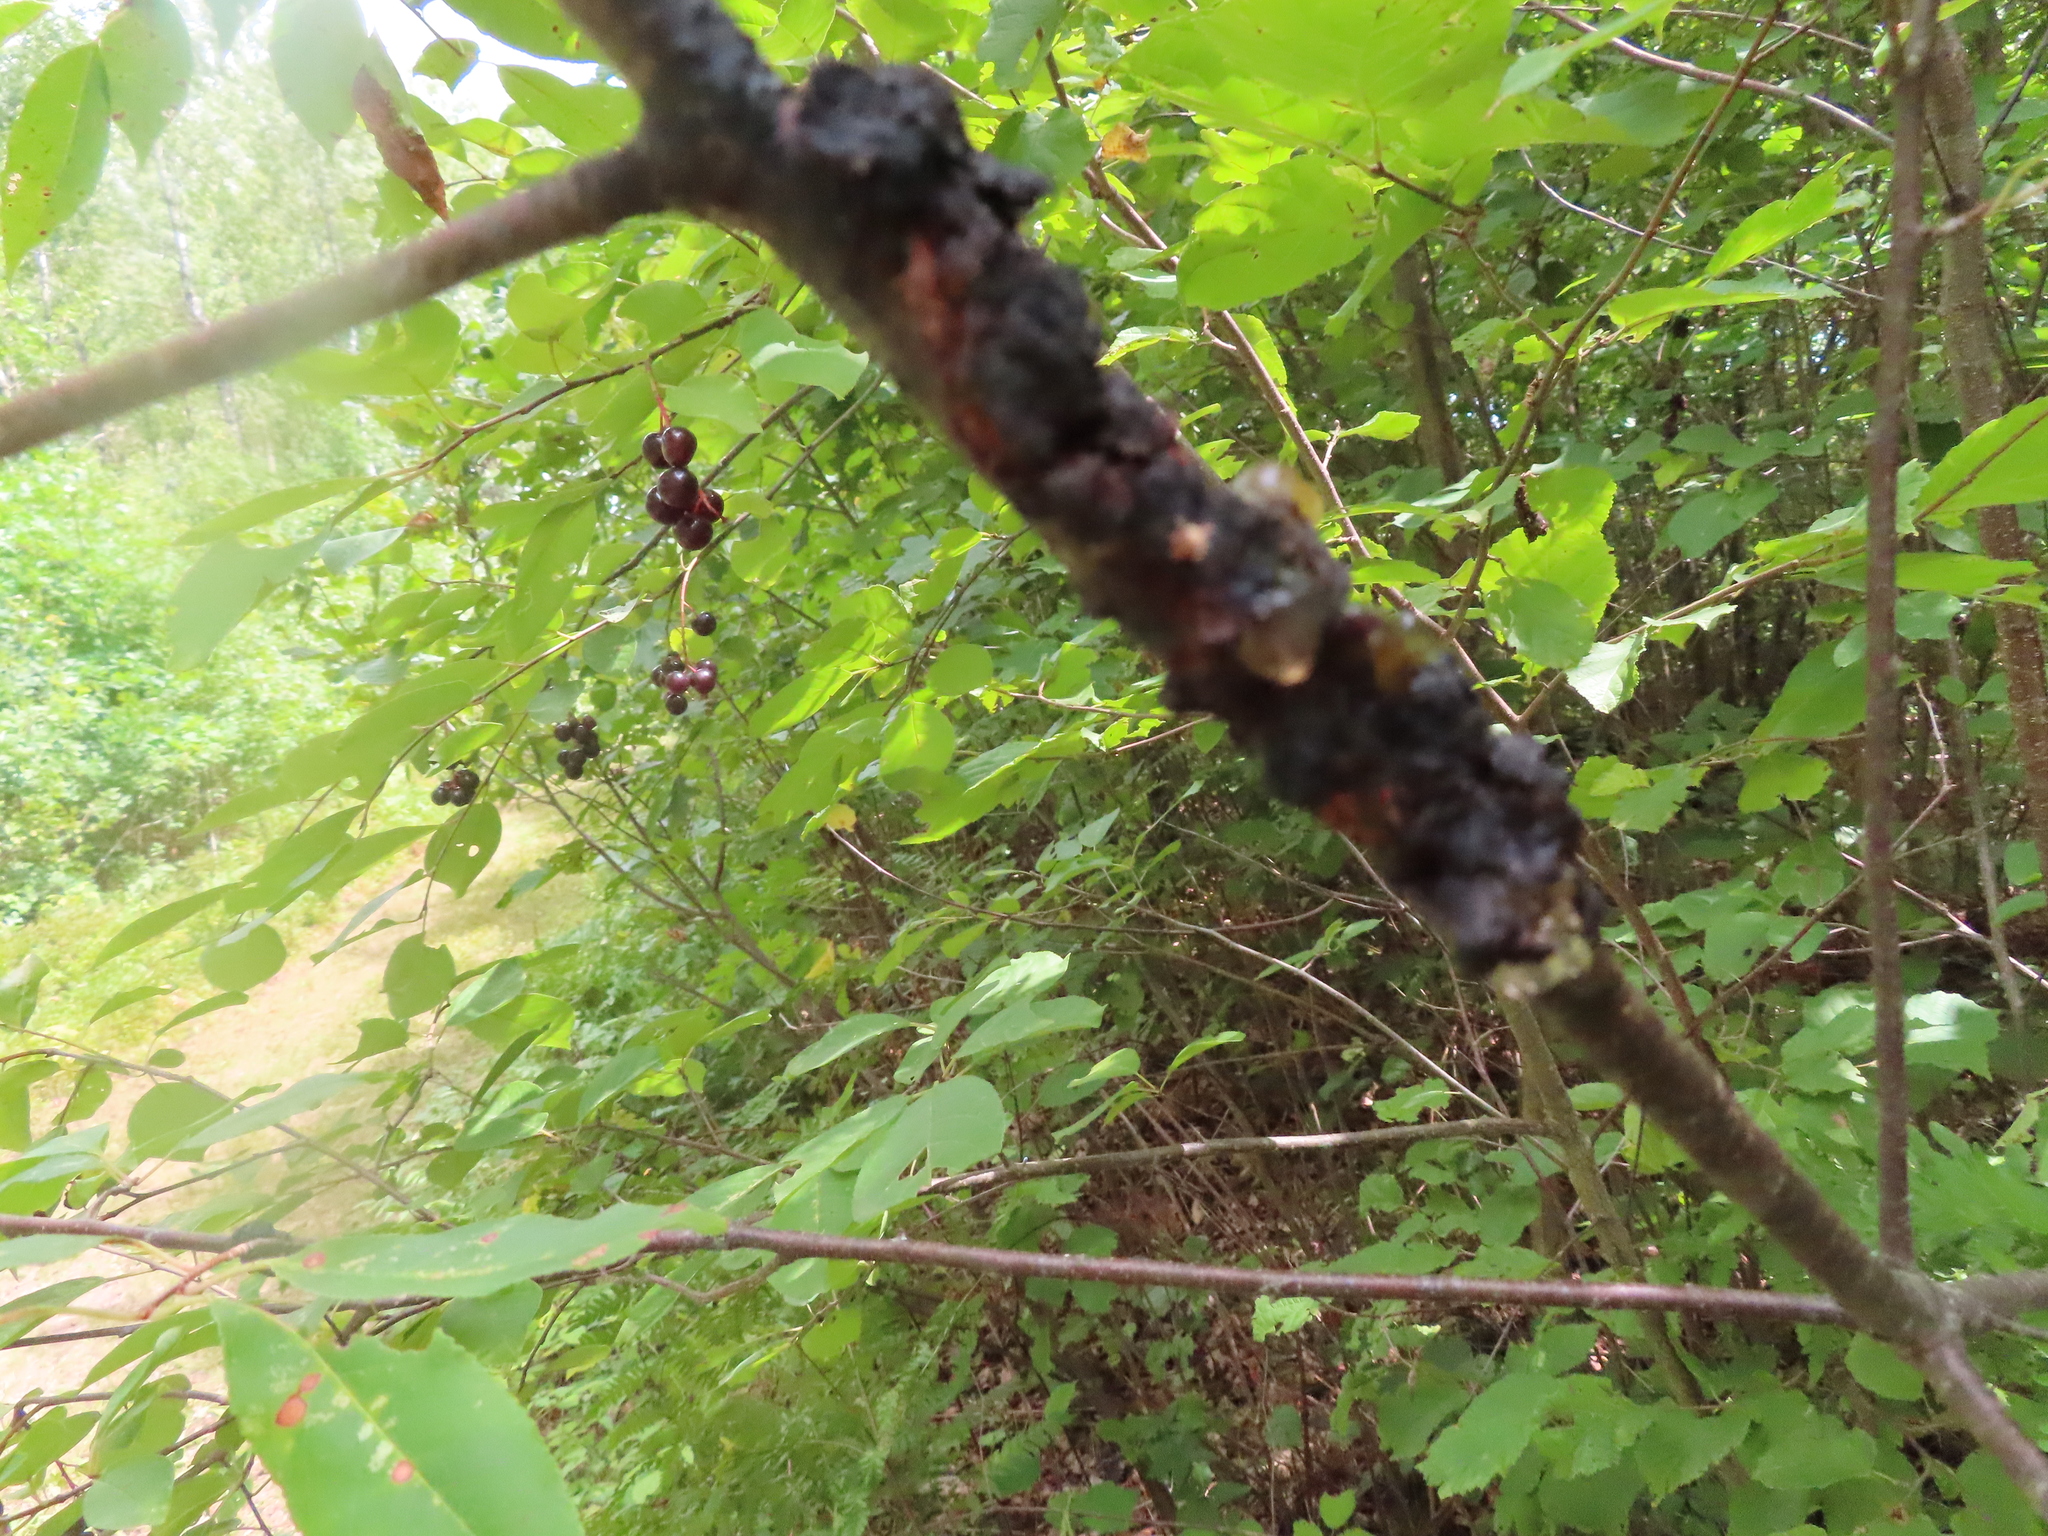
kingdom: Fungi
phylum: Ascomycota
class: Dothideomycetes
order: Venturiales
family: Venturiaceae
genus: Apiosporina
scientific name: Apiosporina morbosa
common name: Black knot
